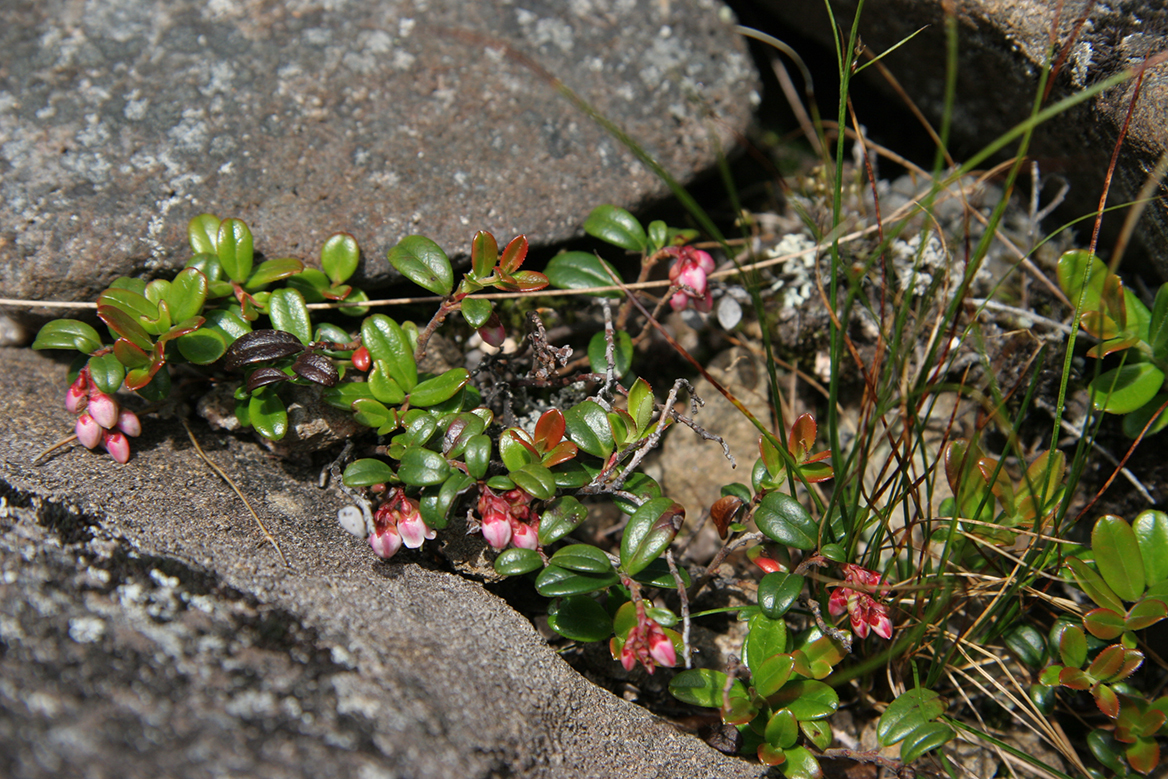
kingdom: Plantae
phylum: Tracheophyta
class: Magnoliopsida
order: Ericales
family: Ericaceae
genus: Vaccinium
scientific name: Vaccinium vitis-idaea
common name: Cowberry
